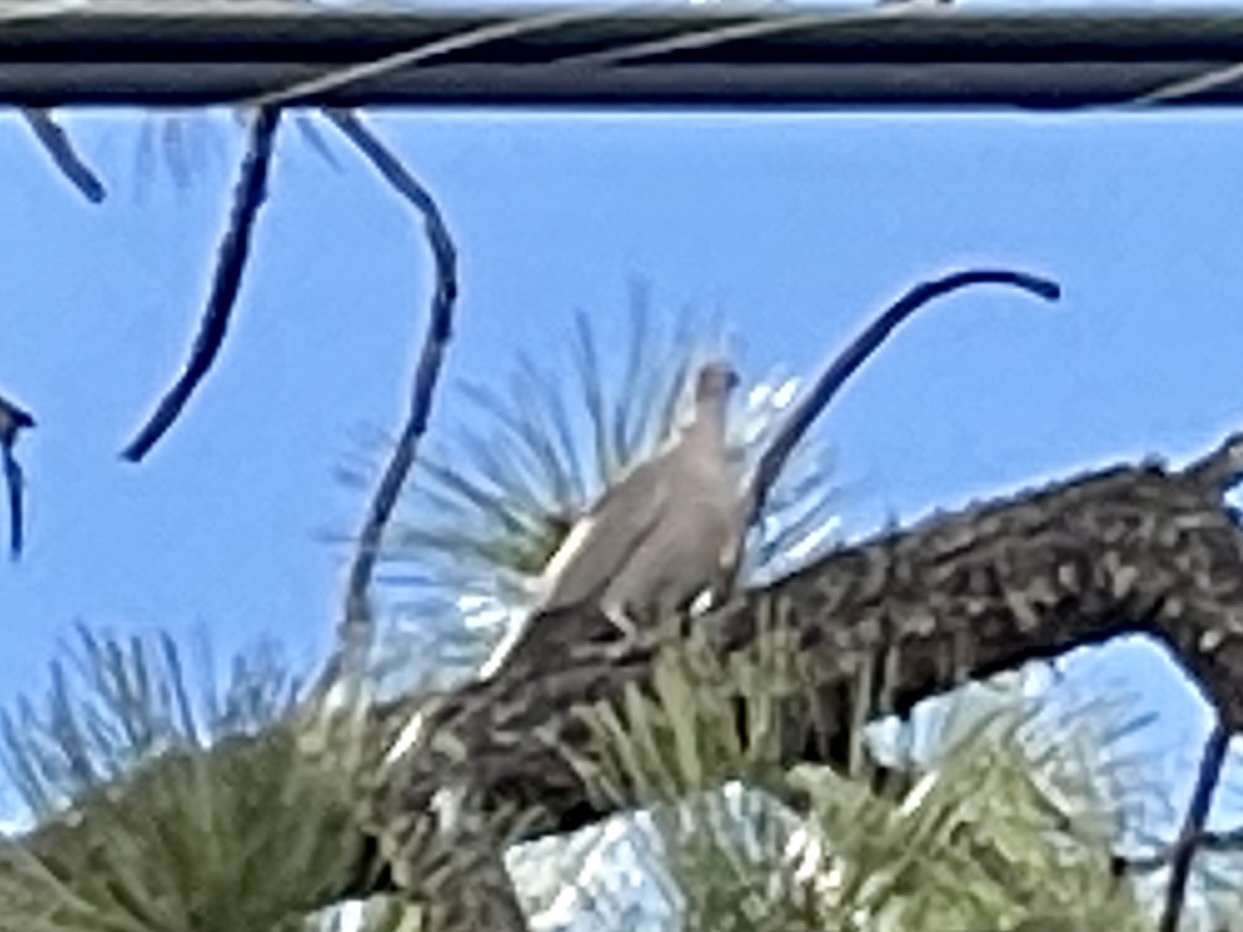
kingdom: Animalia
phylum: Chordata
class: Aves
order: Columbiformes
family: Columbidae
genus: Streptopelia
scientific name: Streptopelia decaocto
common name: Eurasian collared dove
